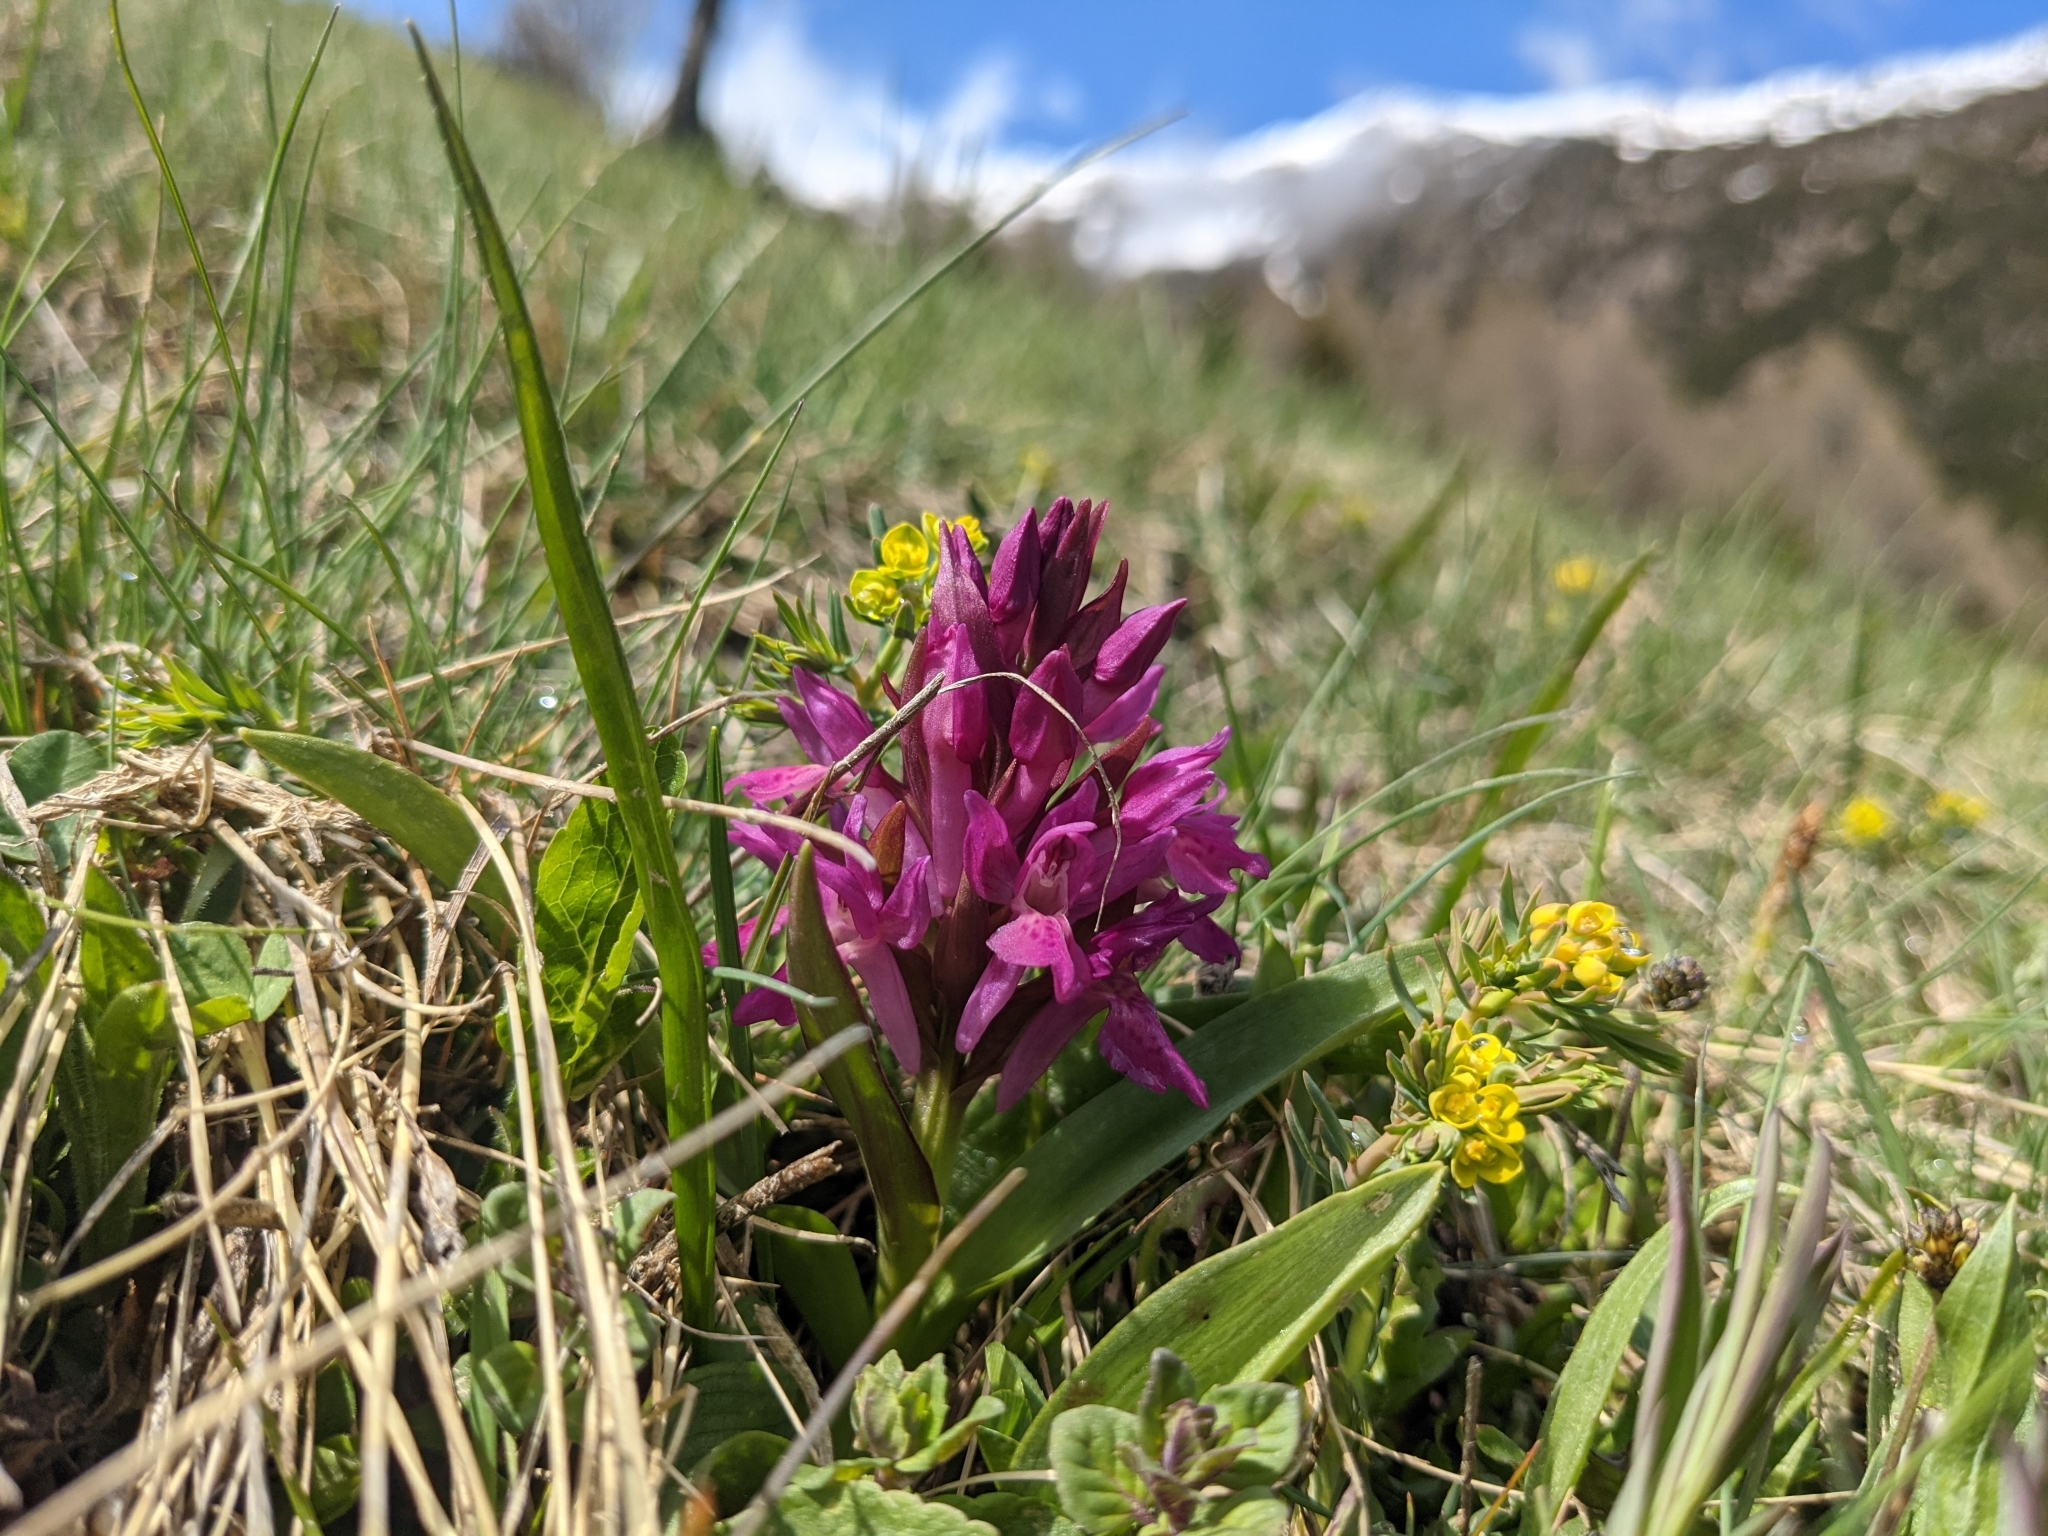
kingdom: Plantae
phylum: Tracheophyta
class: Liliopsida
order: Asparagales
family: Orchidaceae
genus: Dactylorhiza
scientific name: Dactylorhiza sambucina
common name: Elder-flowered orchid
